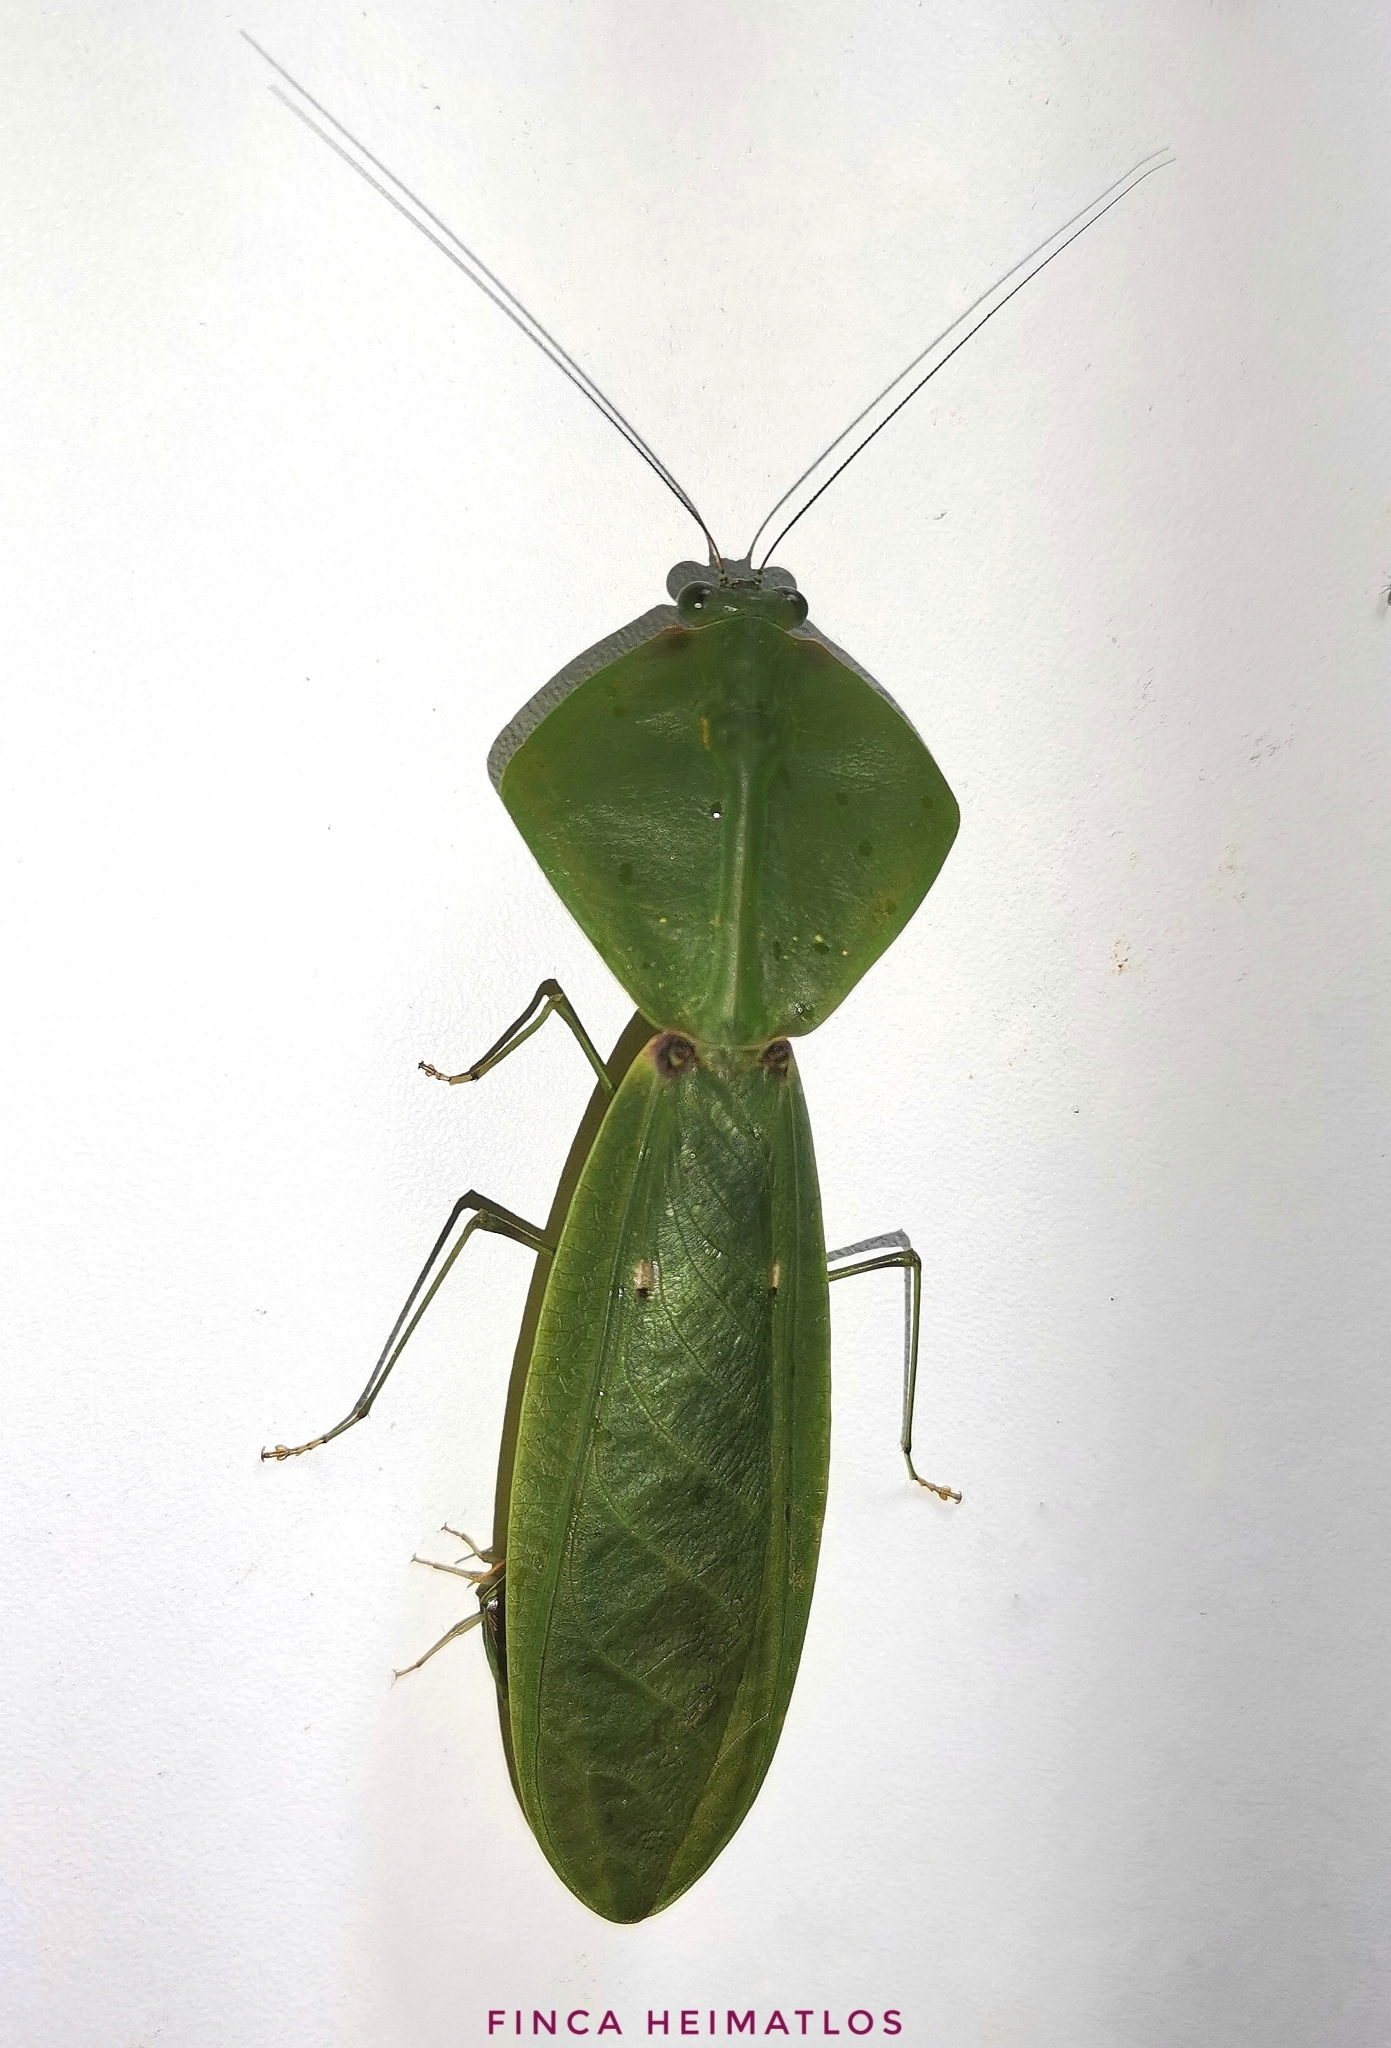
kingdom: Animalia
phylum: Arthropoda
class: Insecta
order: Mantodea
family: Mantidae
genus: Choeradodis
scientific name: Choeradodis rhomboidea
